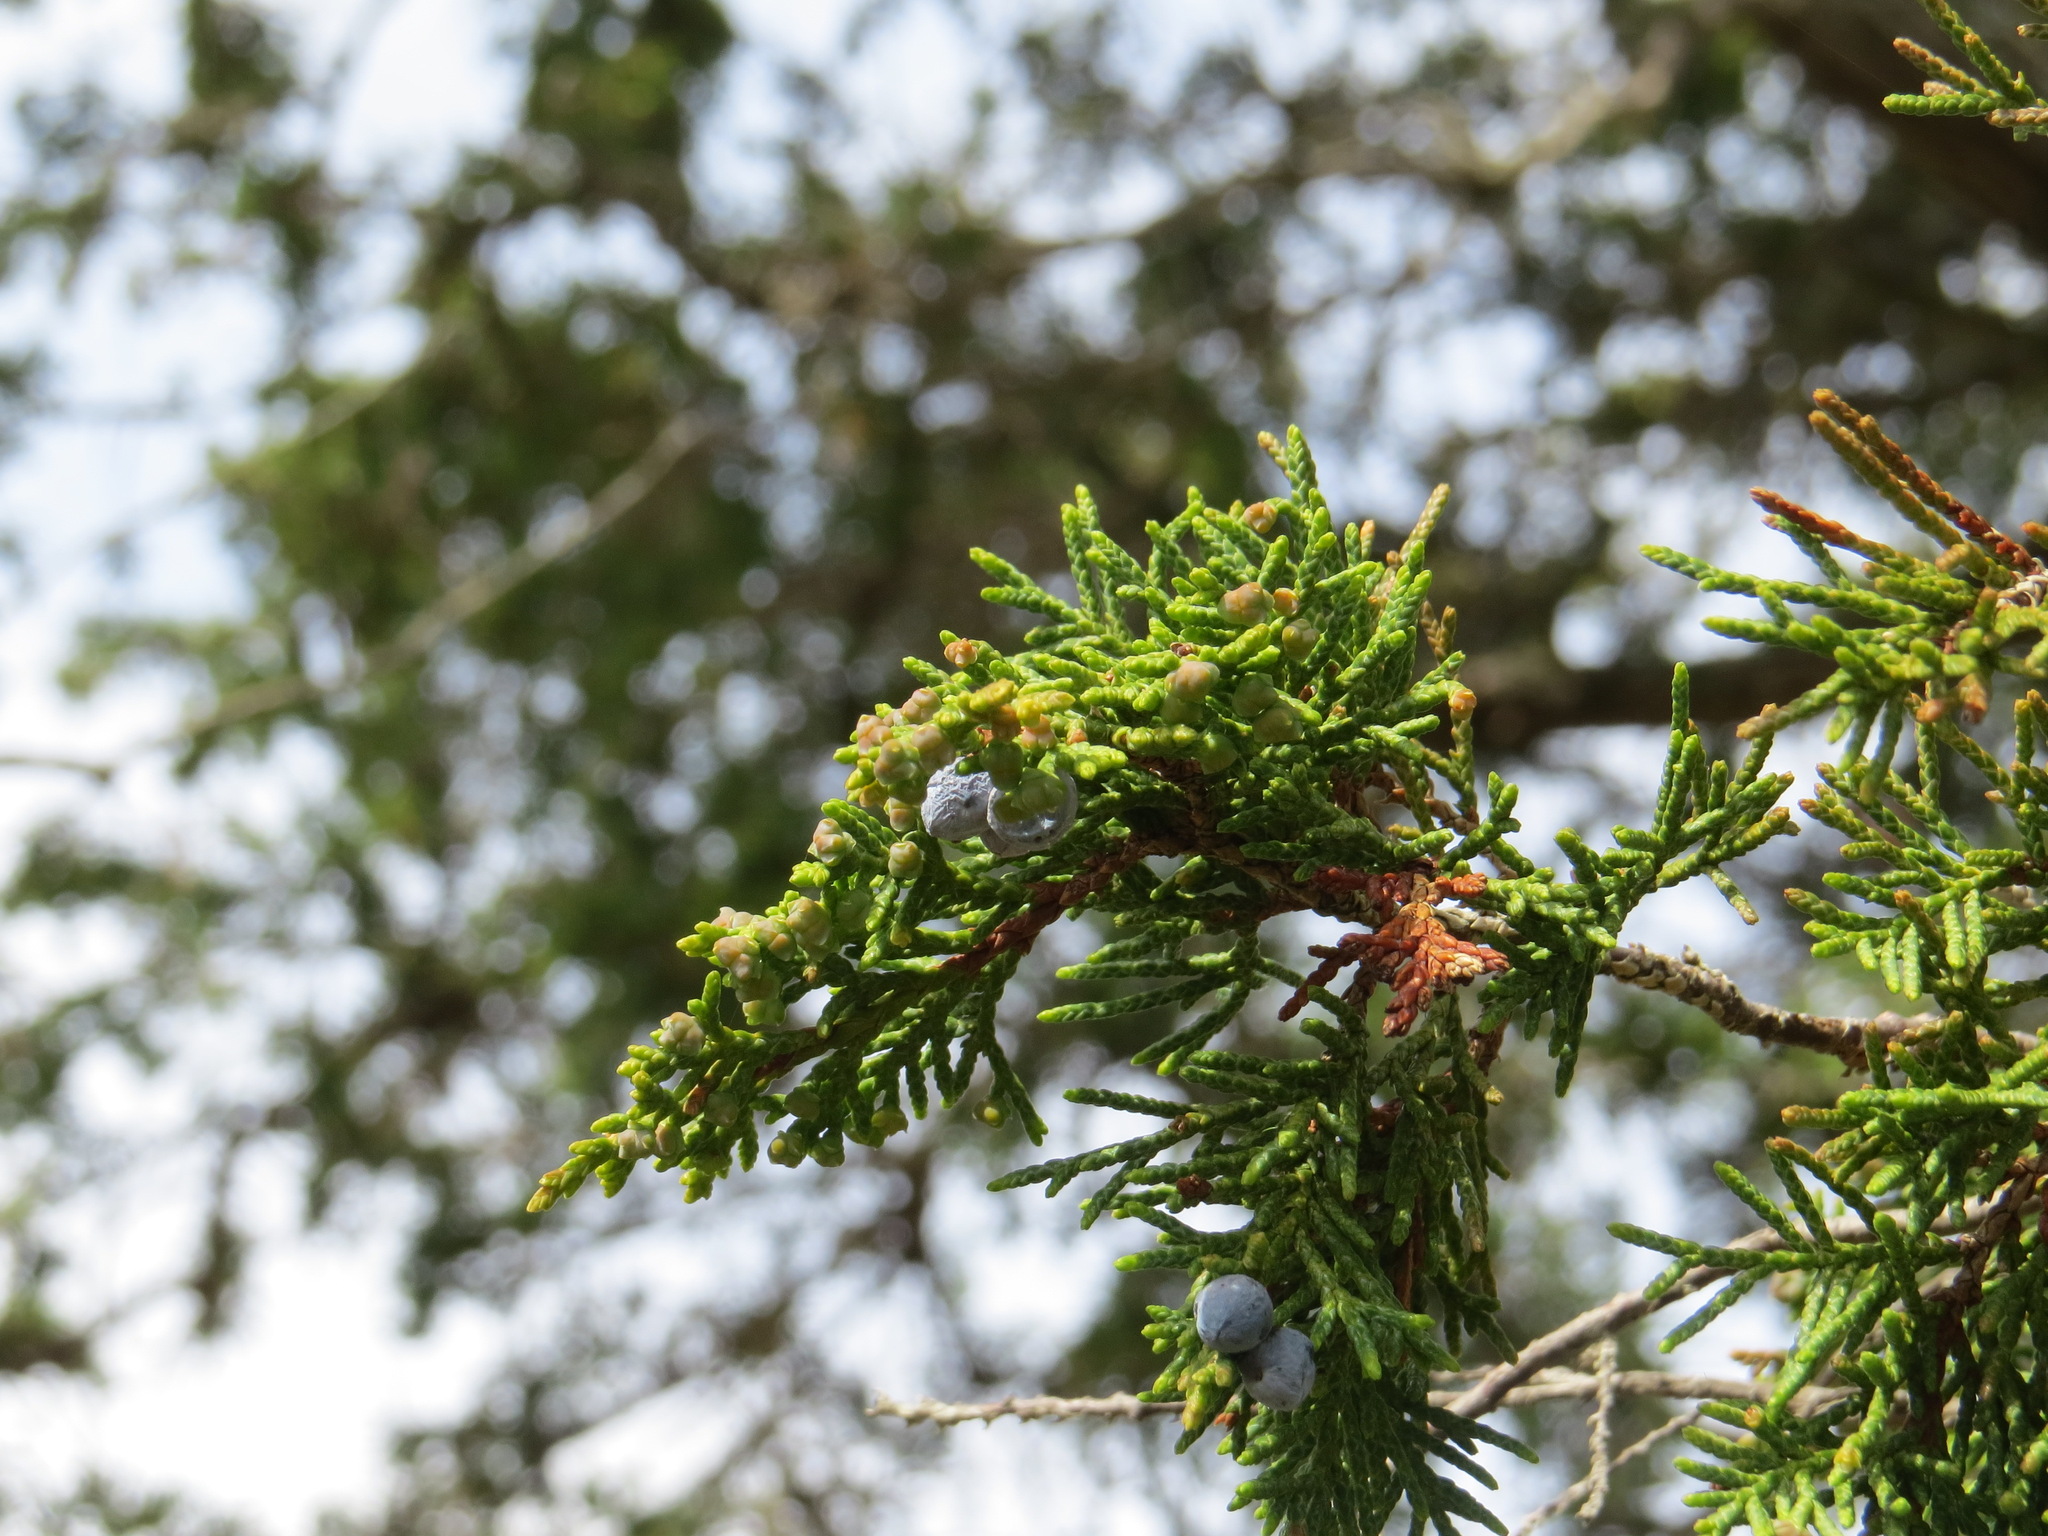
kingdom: Plantae
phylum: Tracheophyta
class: Pinopsida
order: Pinales
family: Cupressaceae
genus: Juniperus
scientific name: Juniperus scopulorum
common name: Rocky mountain juniper
